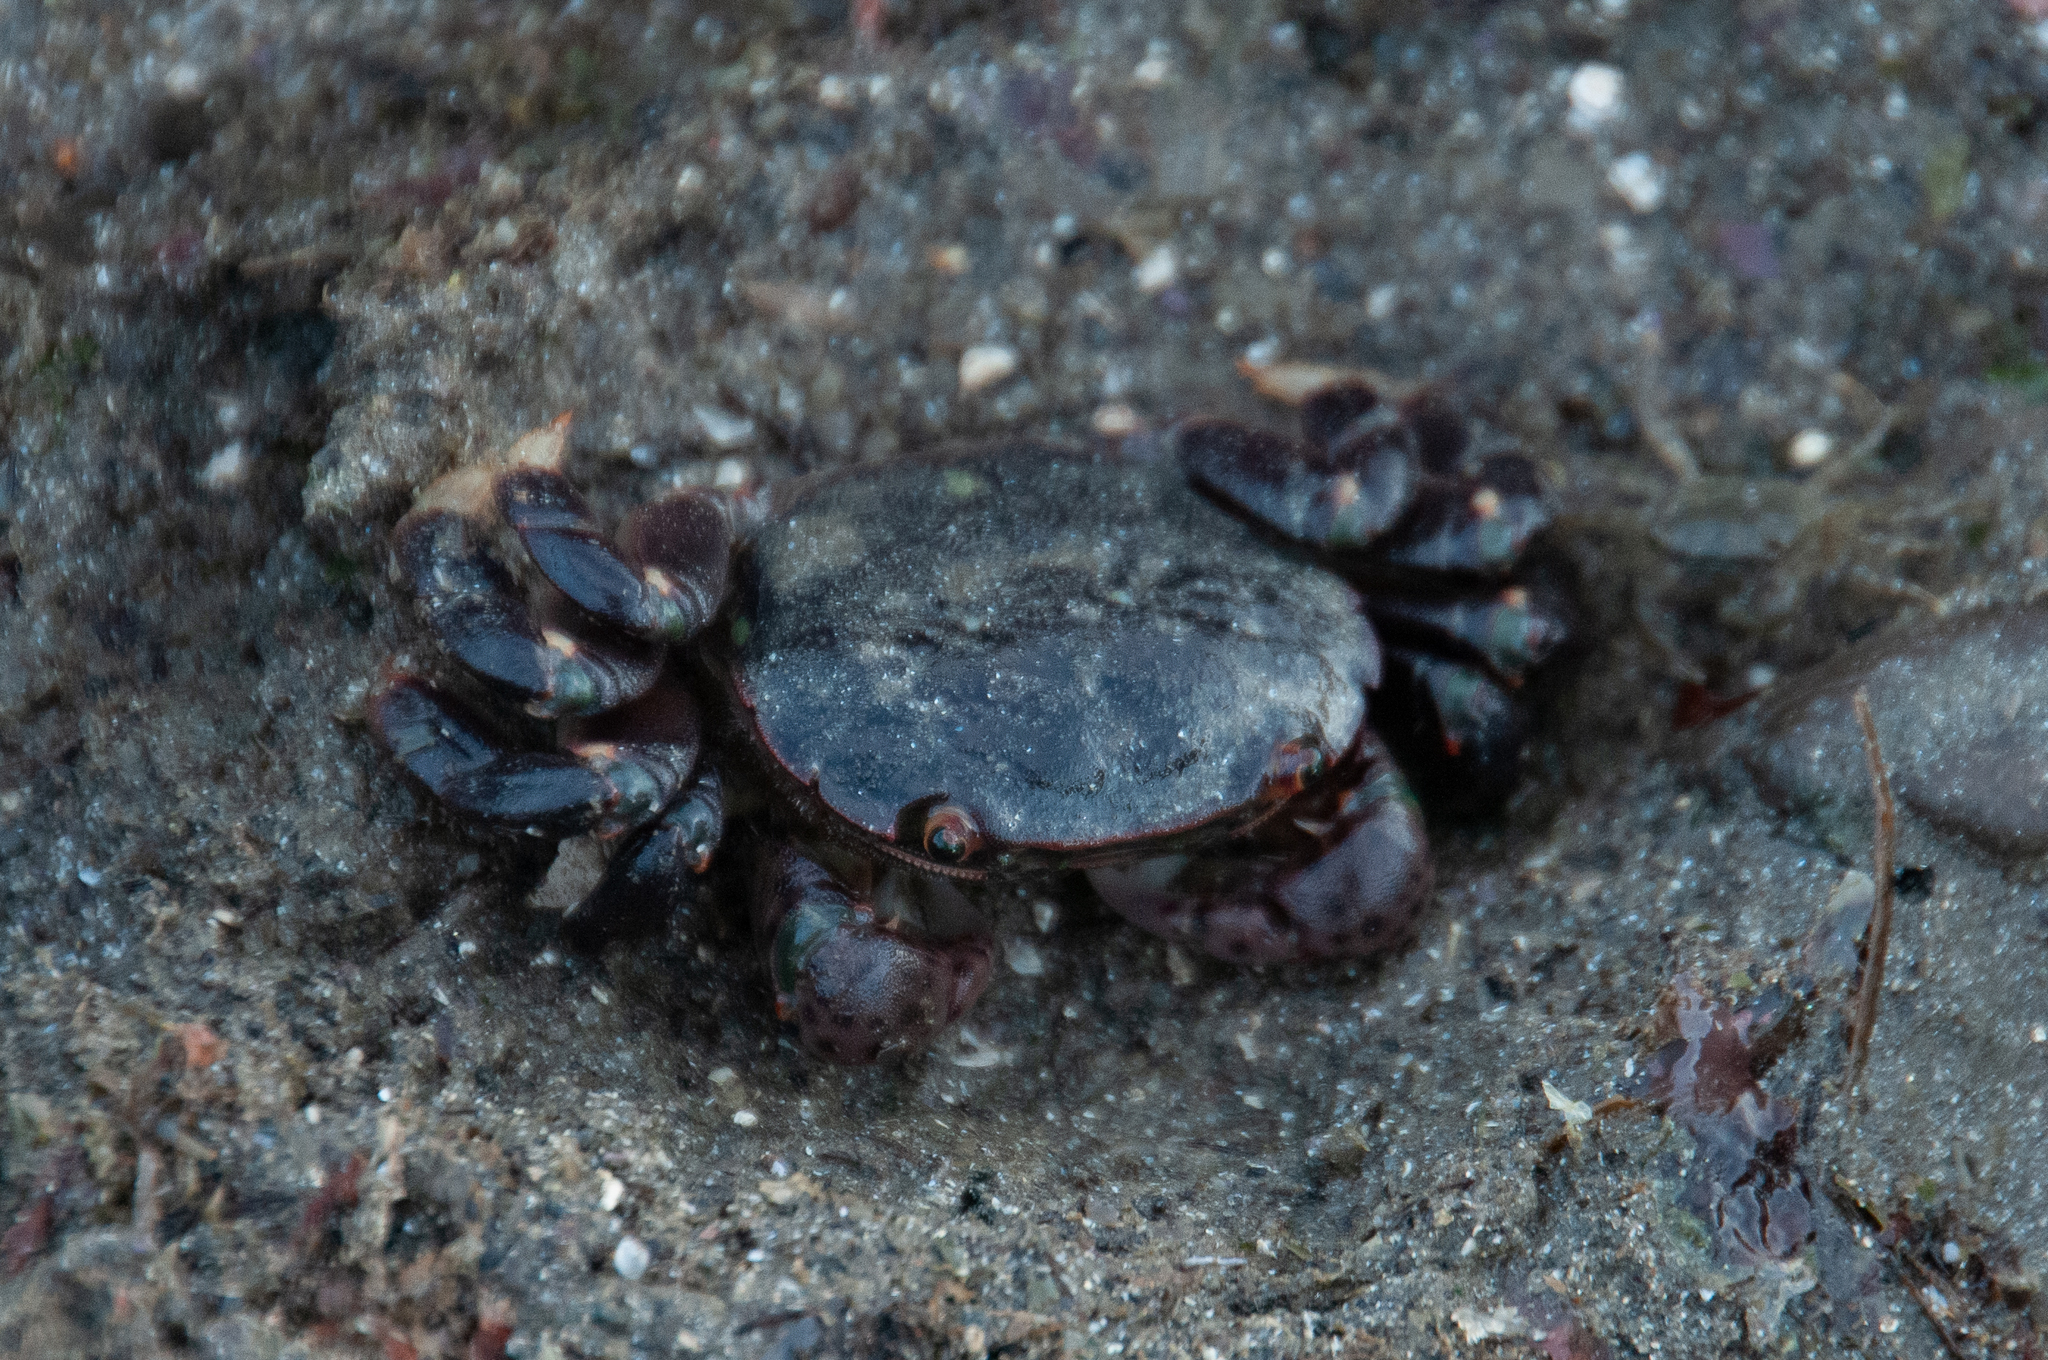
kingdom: Animalia
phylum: Arthropoda
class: Malacostraca
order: Decapoda
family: Varunidae
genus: Hemigrapsus
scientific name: Hemigrapsus nudus
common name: Purple shore crab
